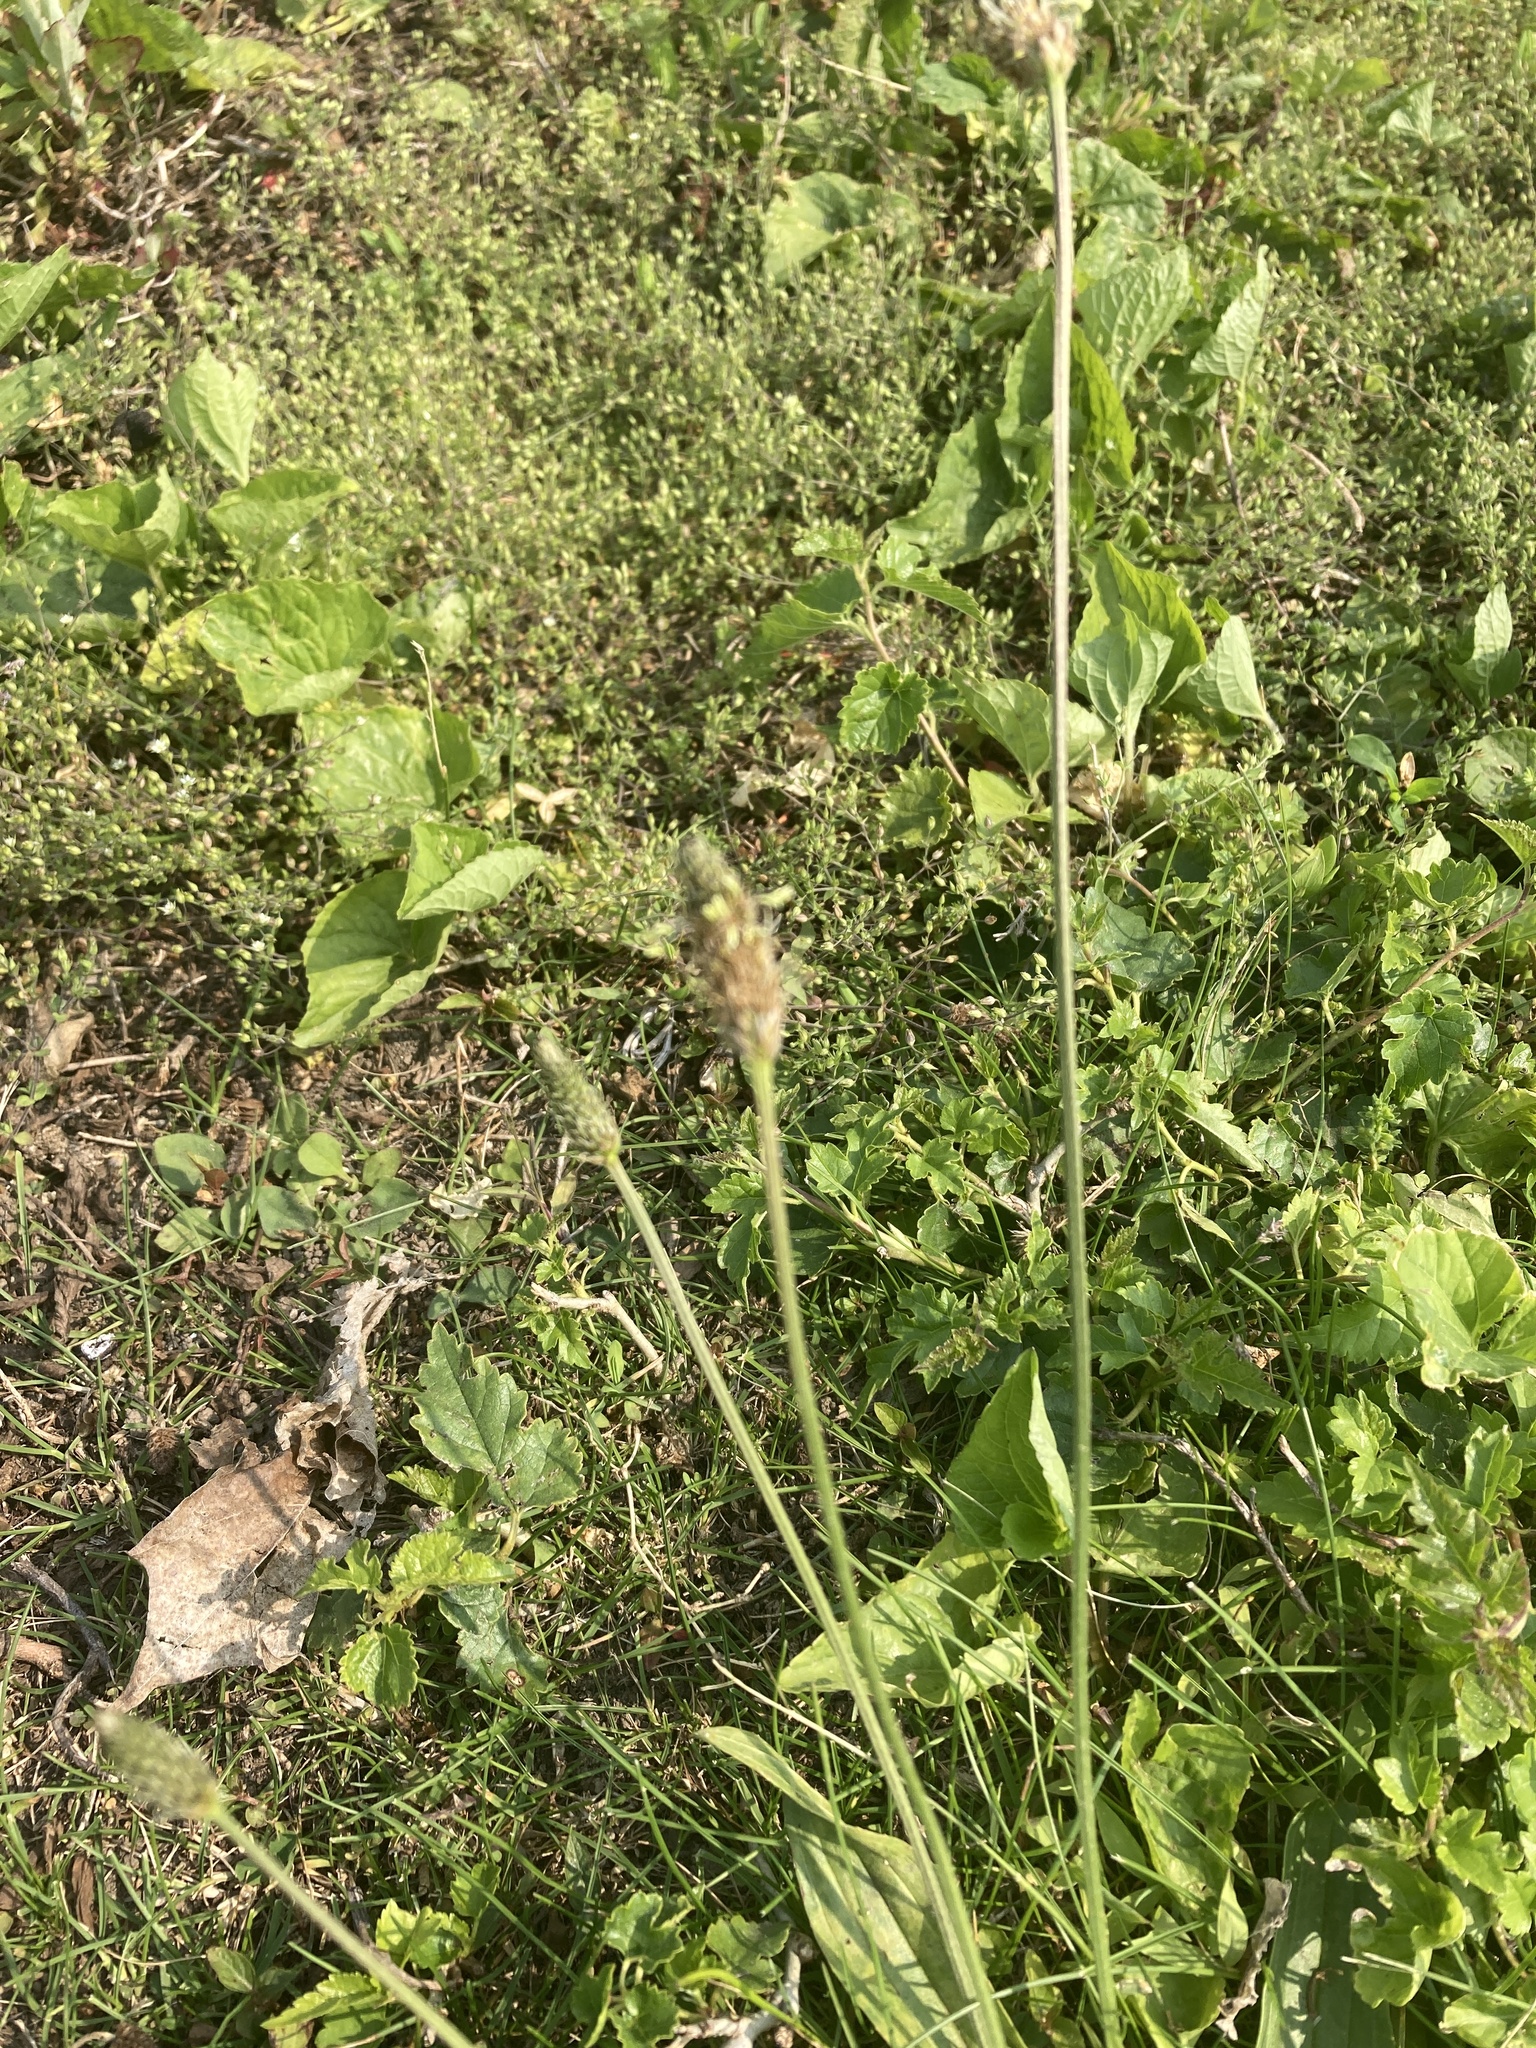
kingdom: Plantae
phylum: Tracheophyta
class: Magnoliopsida
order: Lamiales
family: Plantaginaceae
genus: Plantago
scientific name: Plantago lanceolata
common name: Ribwort plantain
